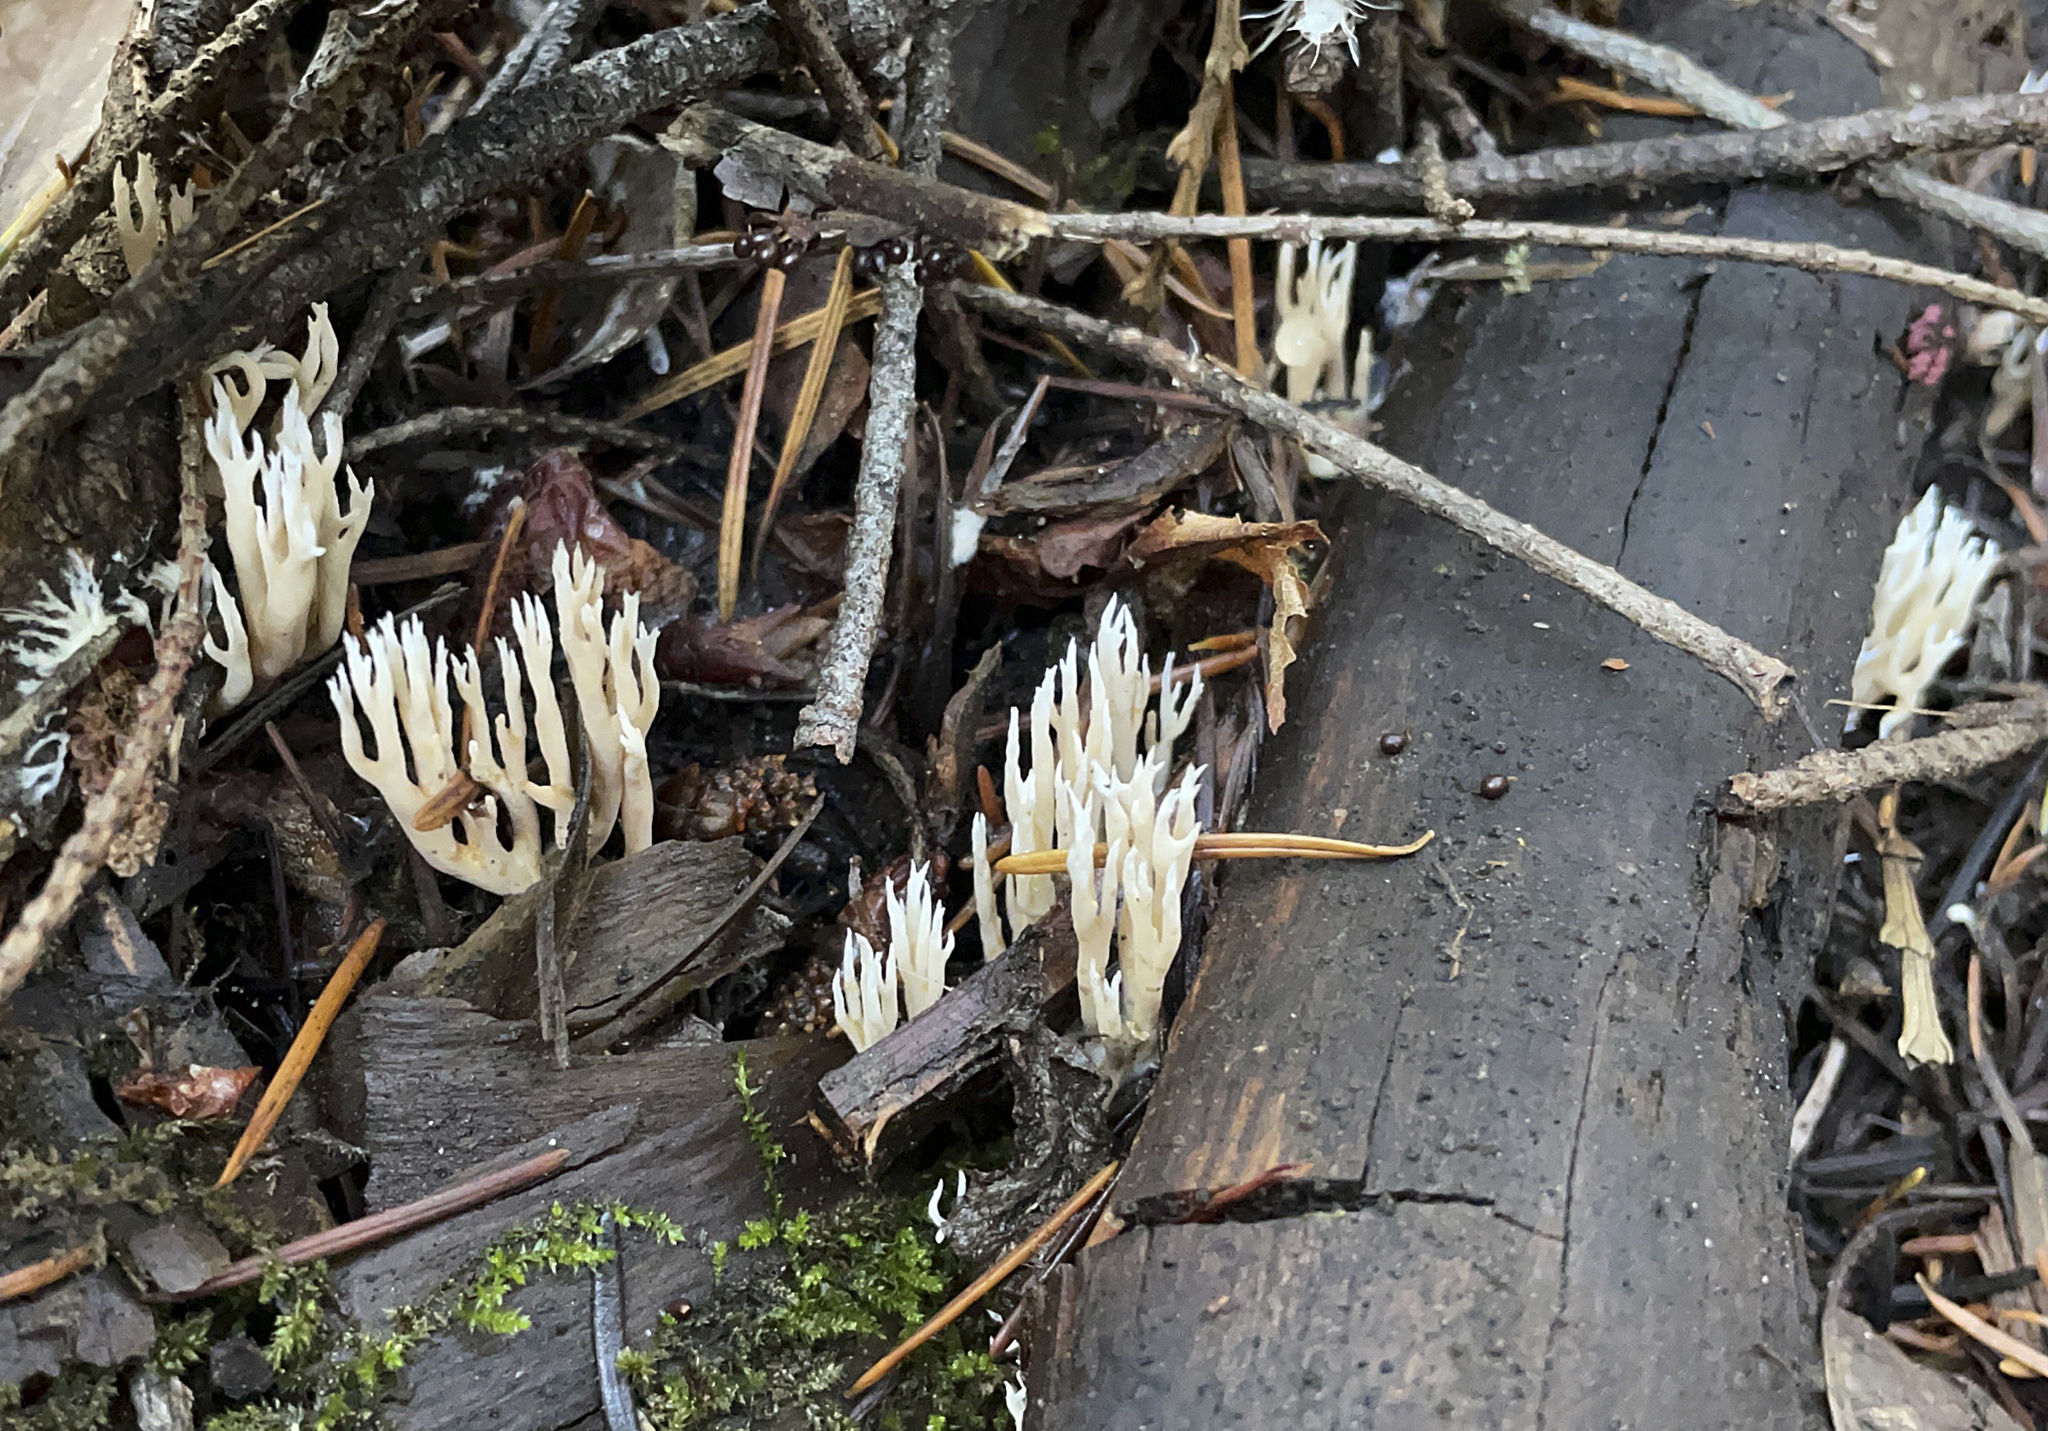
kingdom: Fungi
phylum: Basidiomycota
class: Agaricomycetes
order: Agaricales
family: Clavariaceae
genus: Ramariopsis
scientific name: Ramariopsis kunzei
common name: Ivory coral
